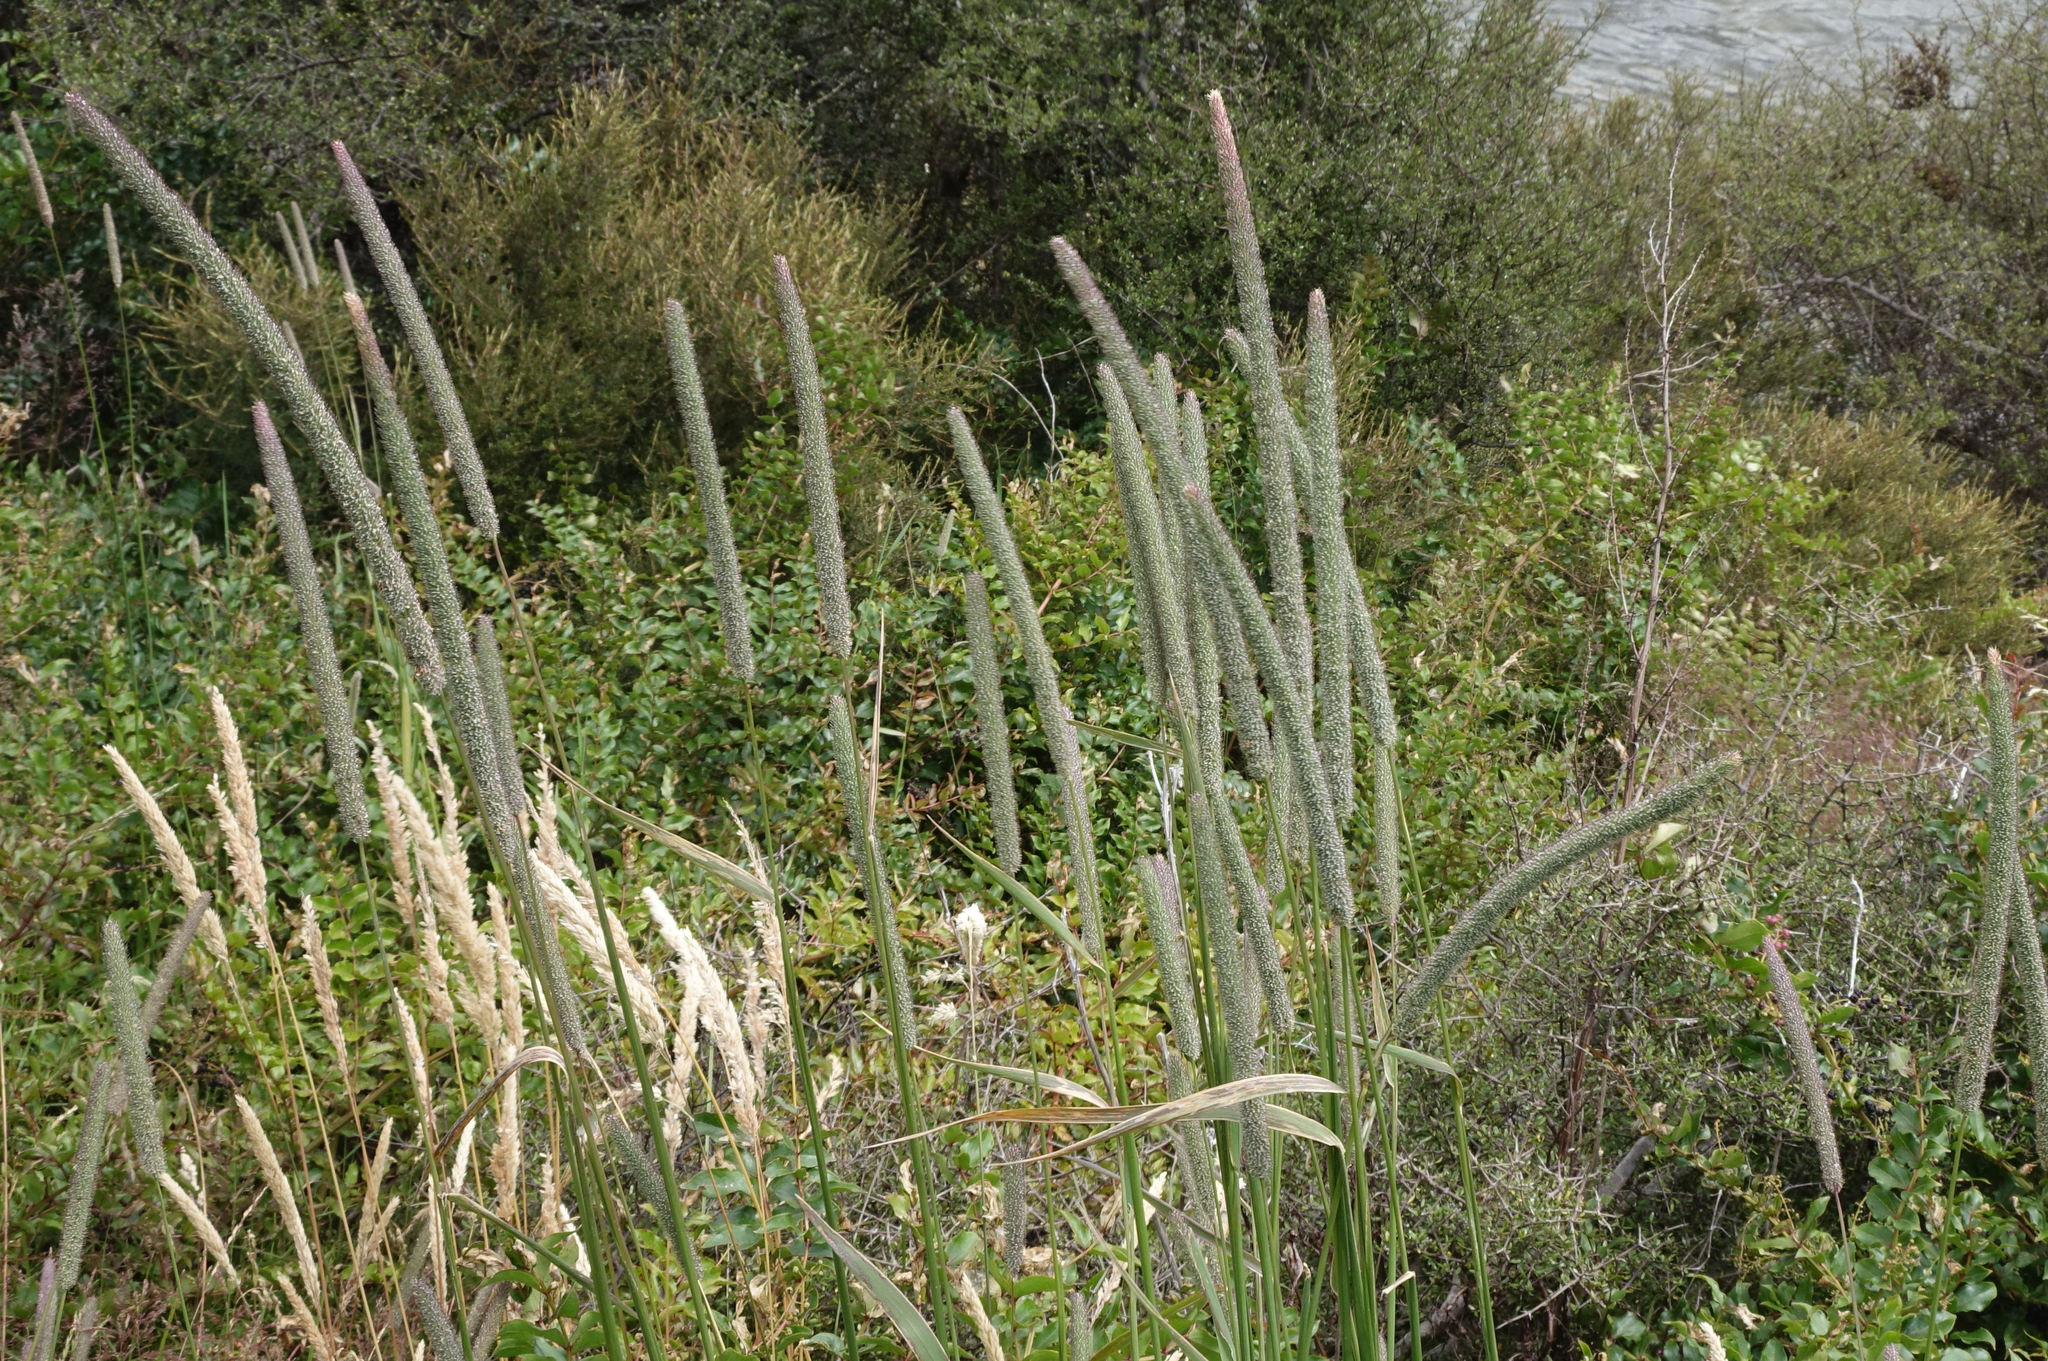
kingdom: Plantae
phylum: Tracheophyta
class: Liliopsida
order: Poales
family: Poaceae
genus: Phleum
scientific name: Phleum pratense
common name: Timothy grass
